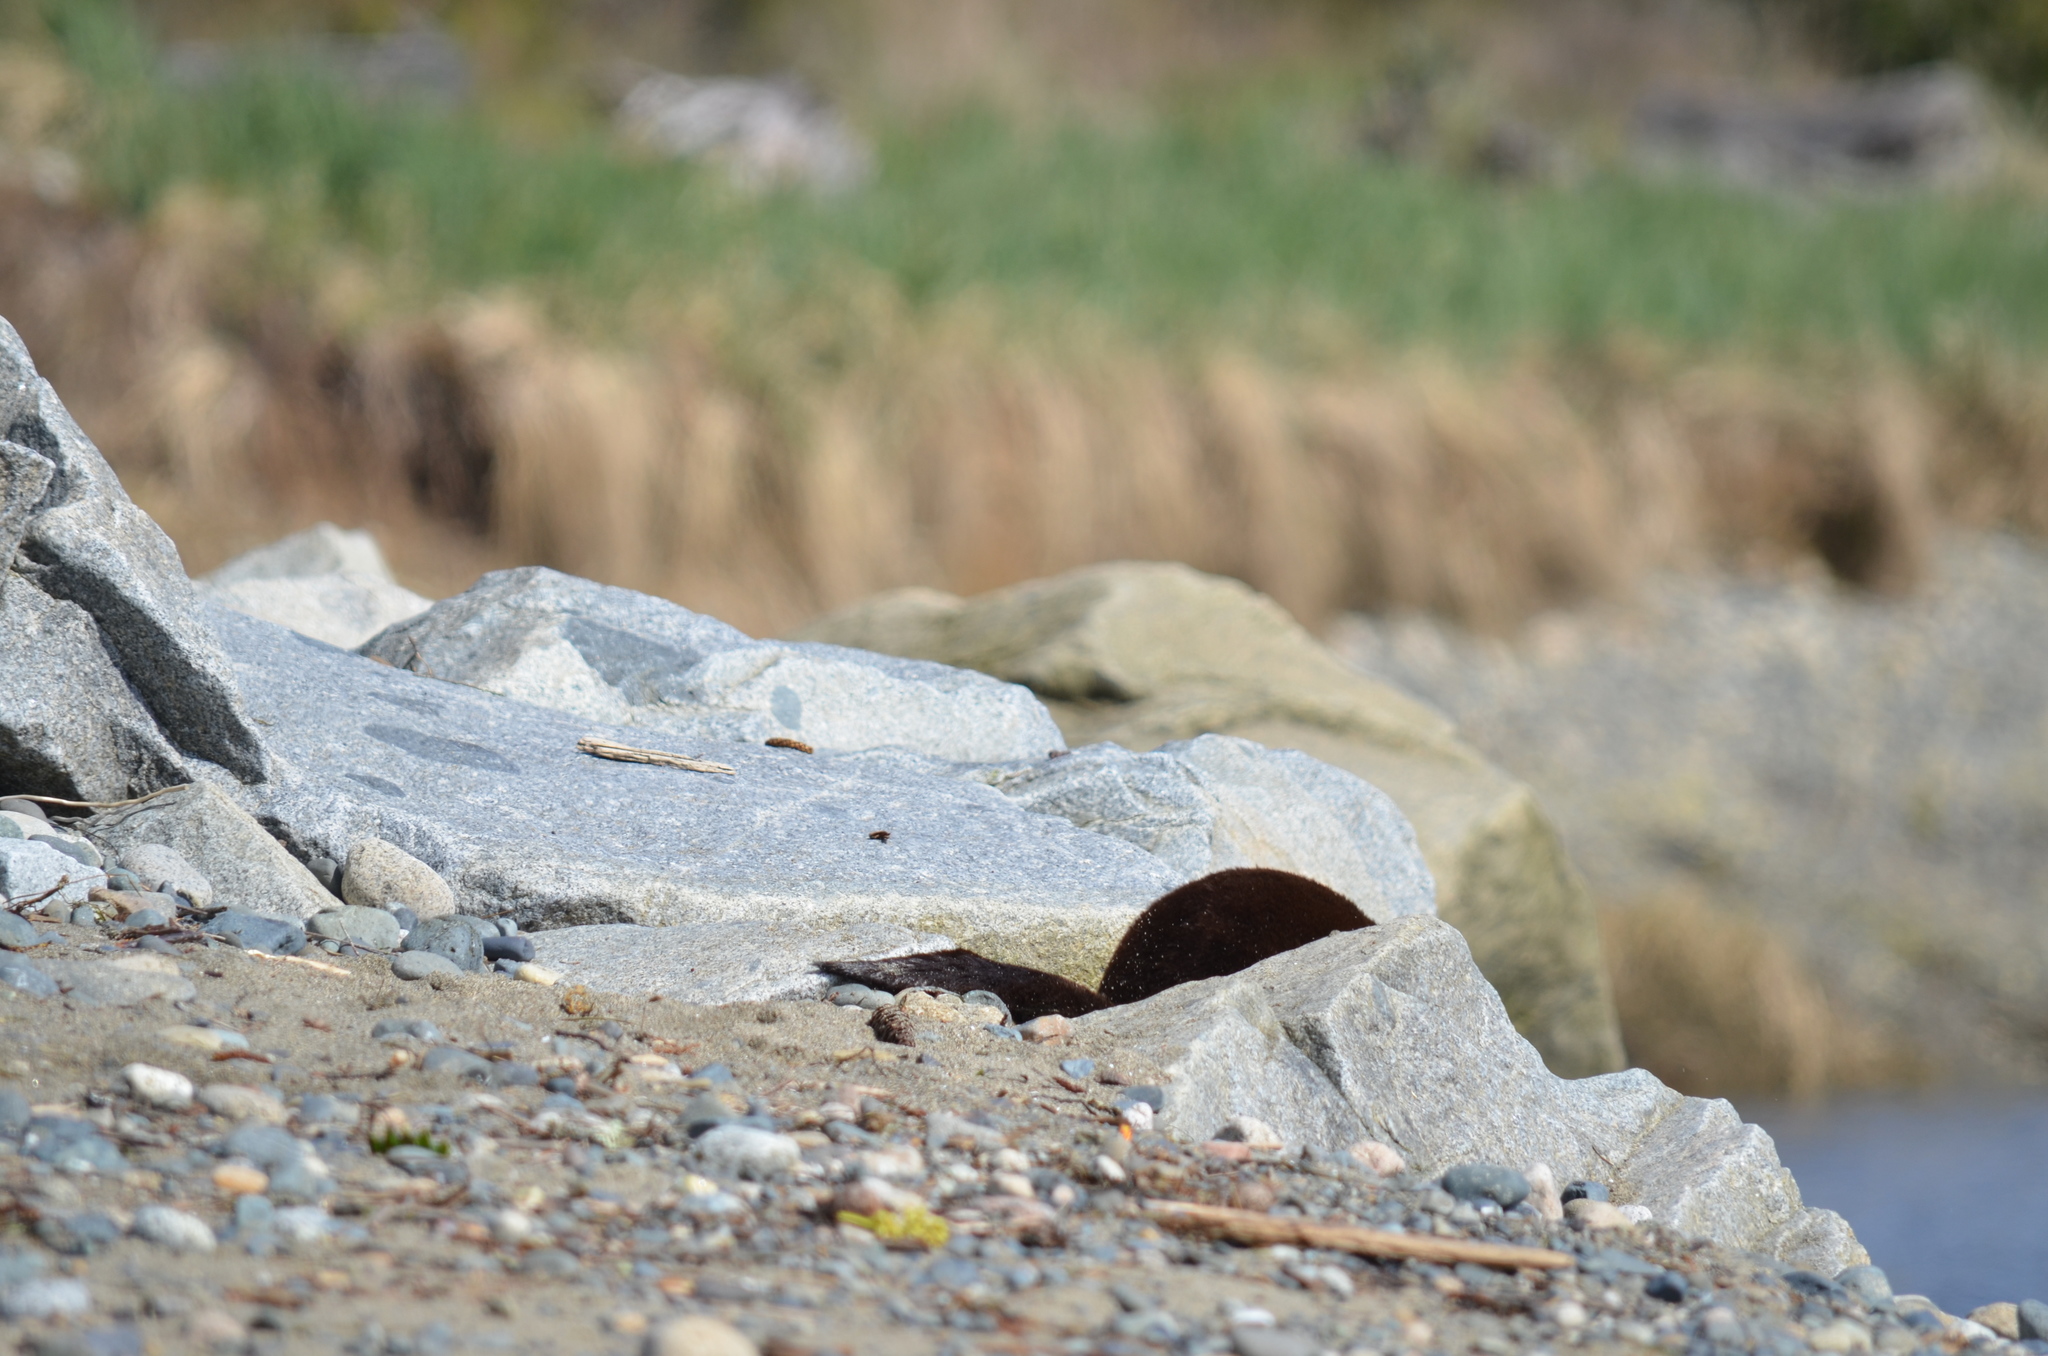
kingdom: Animalia
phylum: Chordata
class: Mammalia
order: Carnivora
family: Mustelidae
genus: Lontra
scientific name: Lontra canadensis
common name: North american river otter
